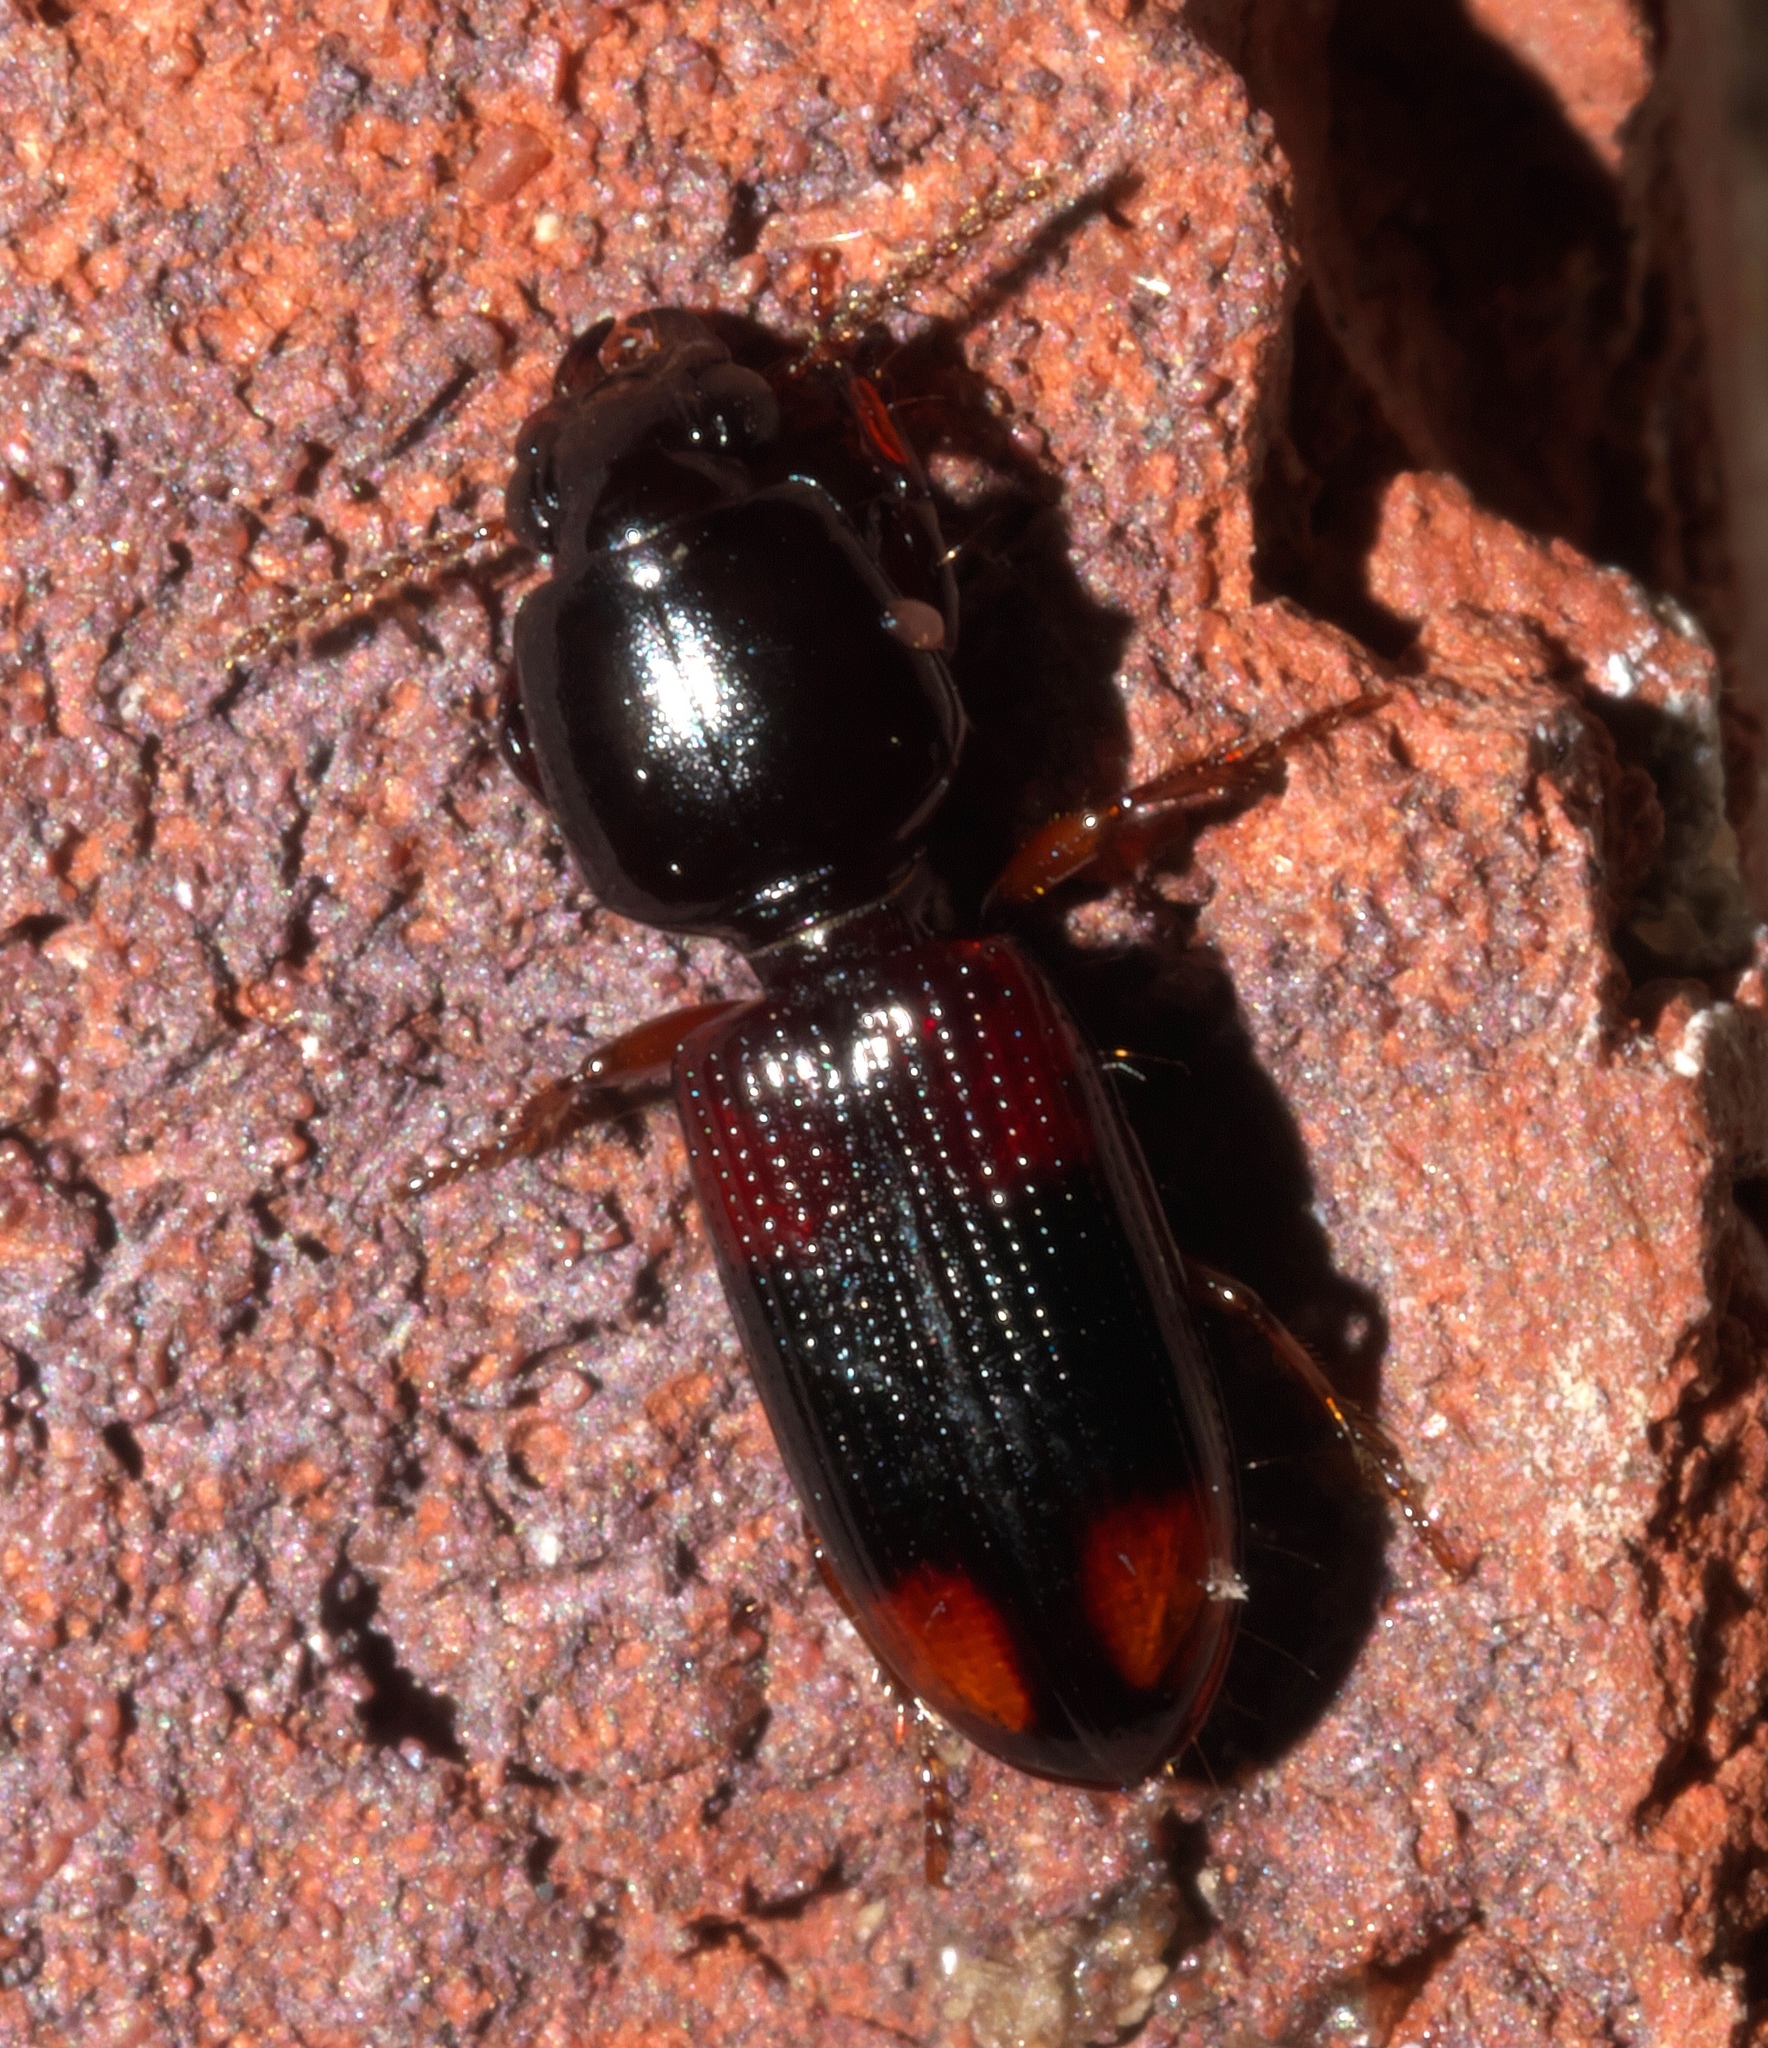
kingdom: Animalia
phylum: Arthropoda
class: Insecta
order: Coleoptera
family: Carabidae
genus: Clivina
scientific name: Clivina bipustulata
